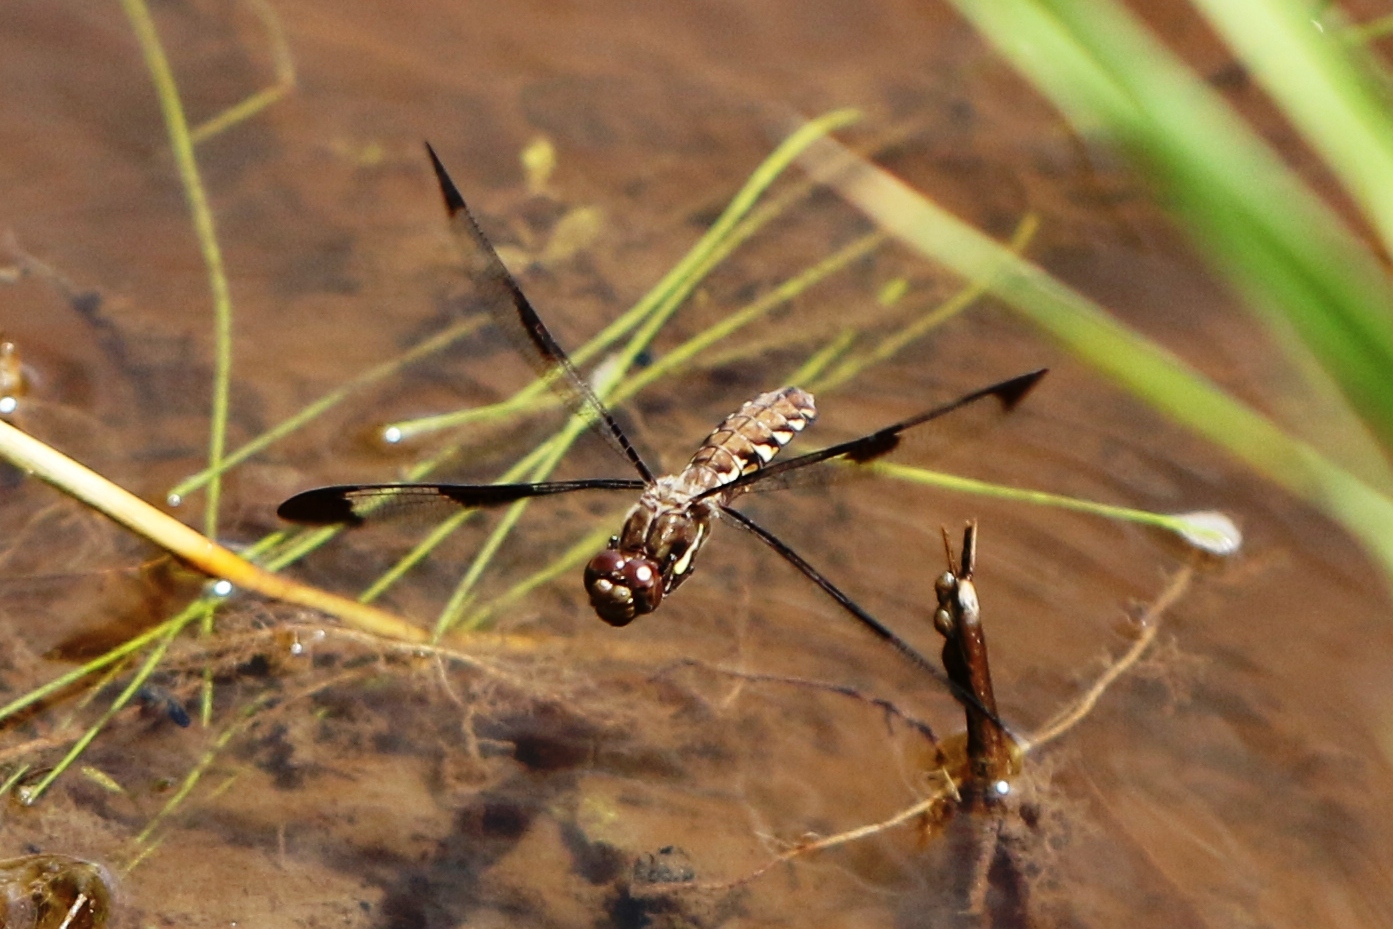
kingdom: Animalia
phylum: Arthropoda
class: Insecta
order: Odonata
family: Libellulidae
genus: Plathemis
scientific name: Plathemis lydia
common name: Common whitetail
